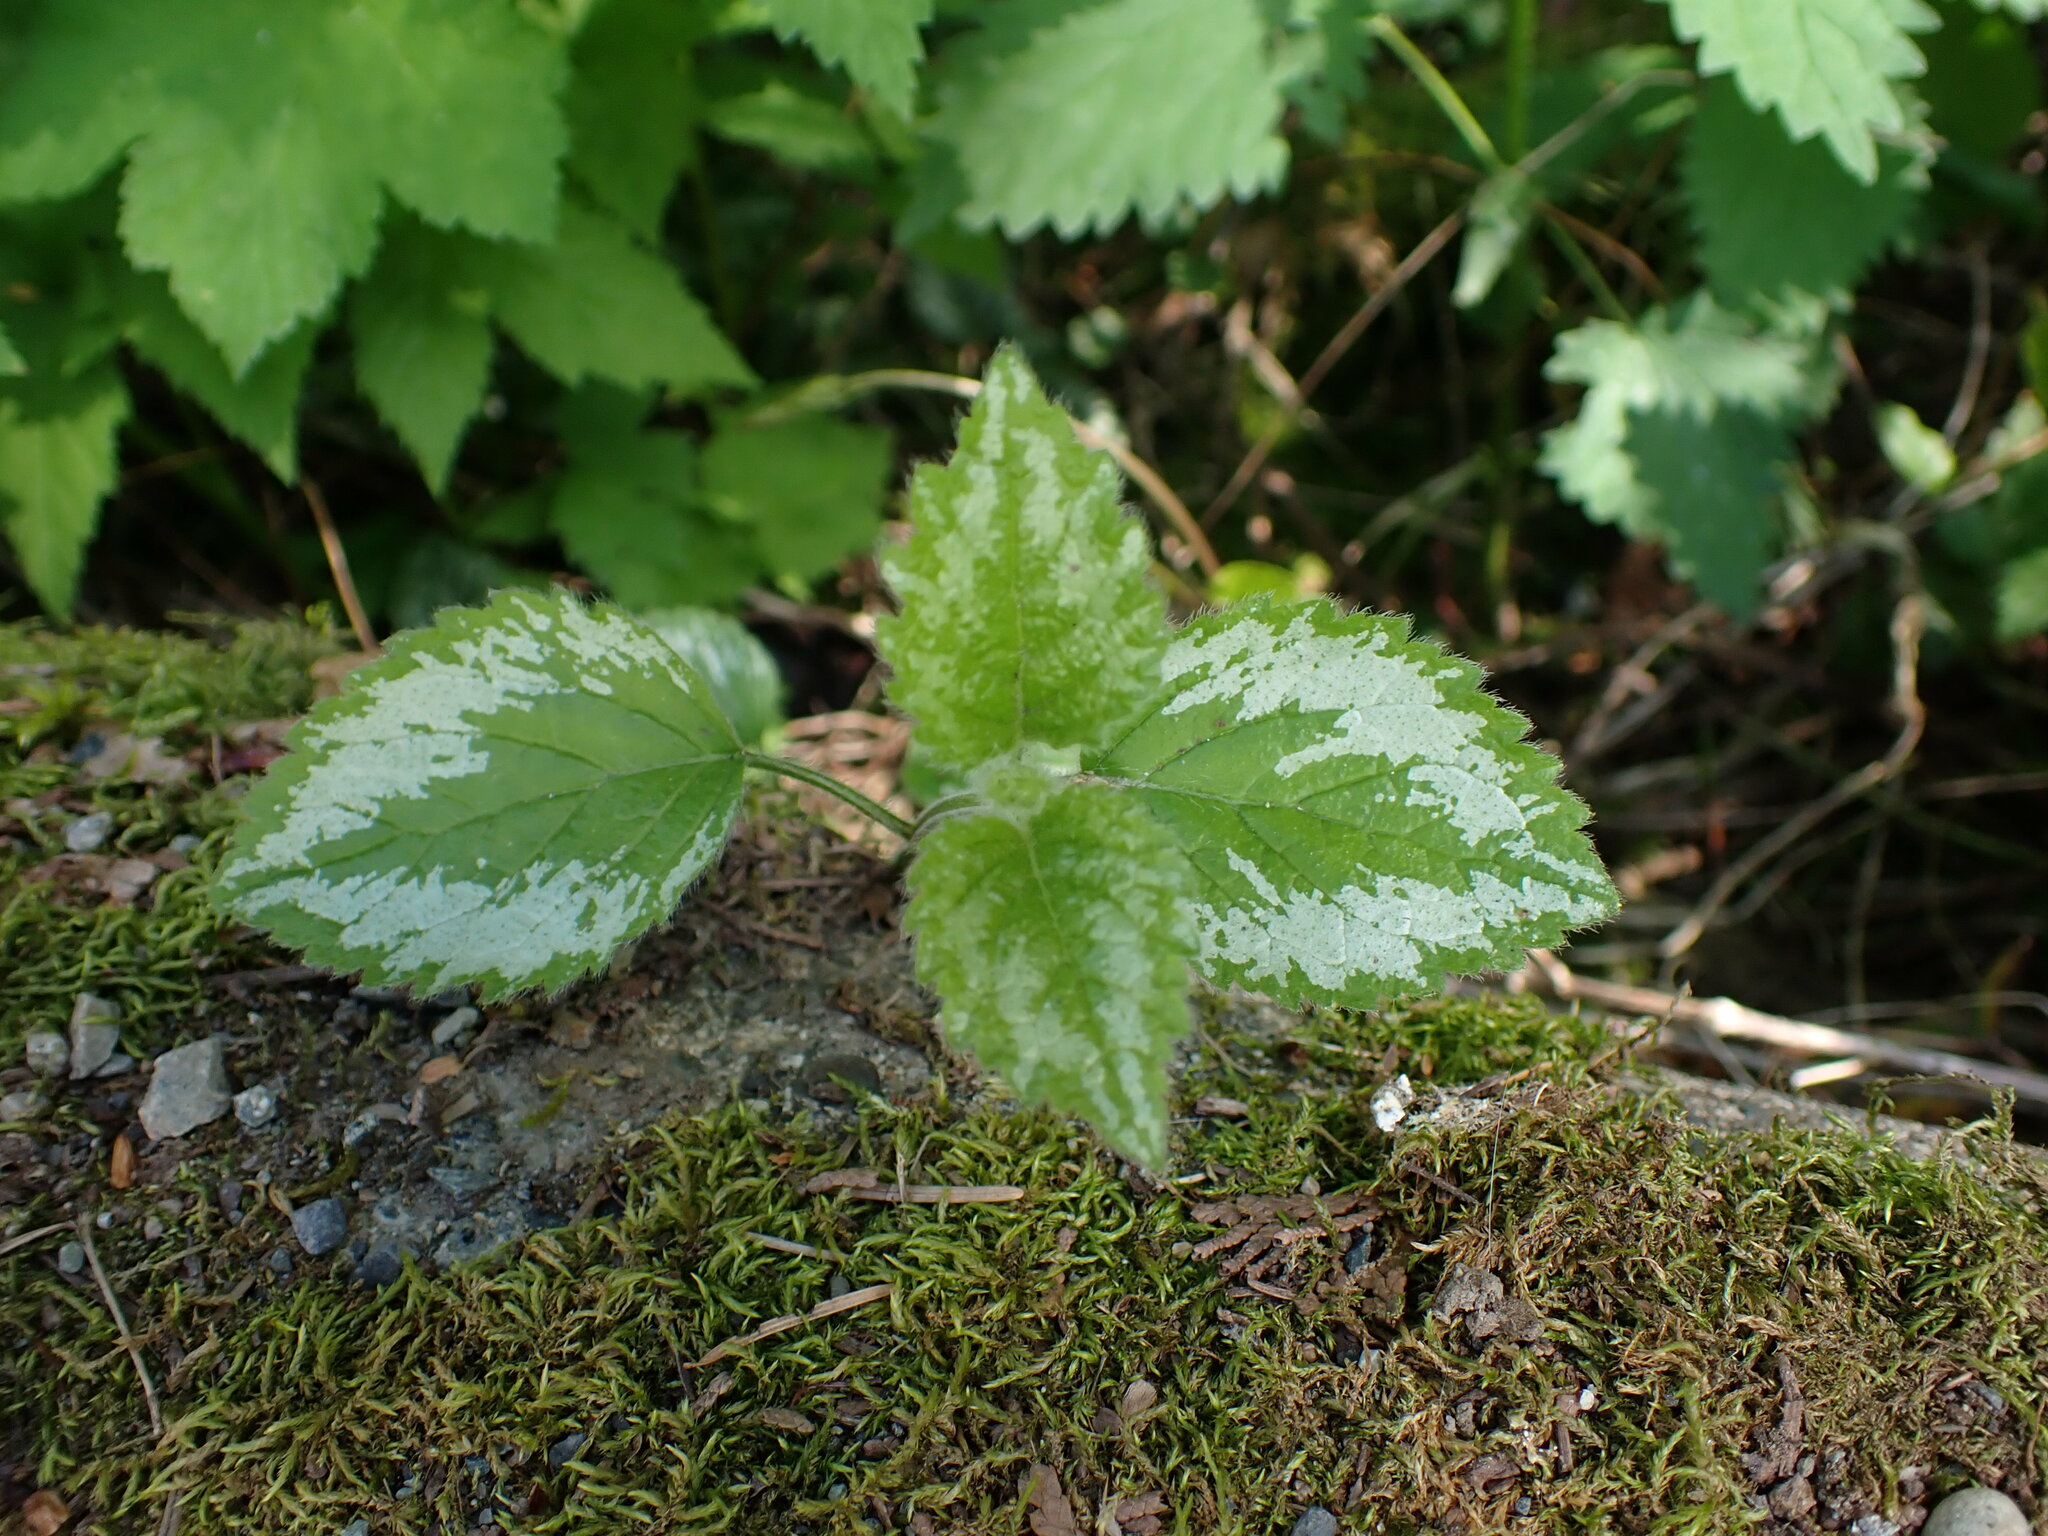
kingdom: Plantae
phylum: Tracheophyta
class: Magnoliopsida
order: Lamiales
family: Lamiaceae
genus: Lamium
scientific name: Lamium galeobdolon
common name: Yellow archangel
